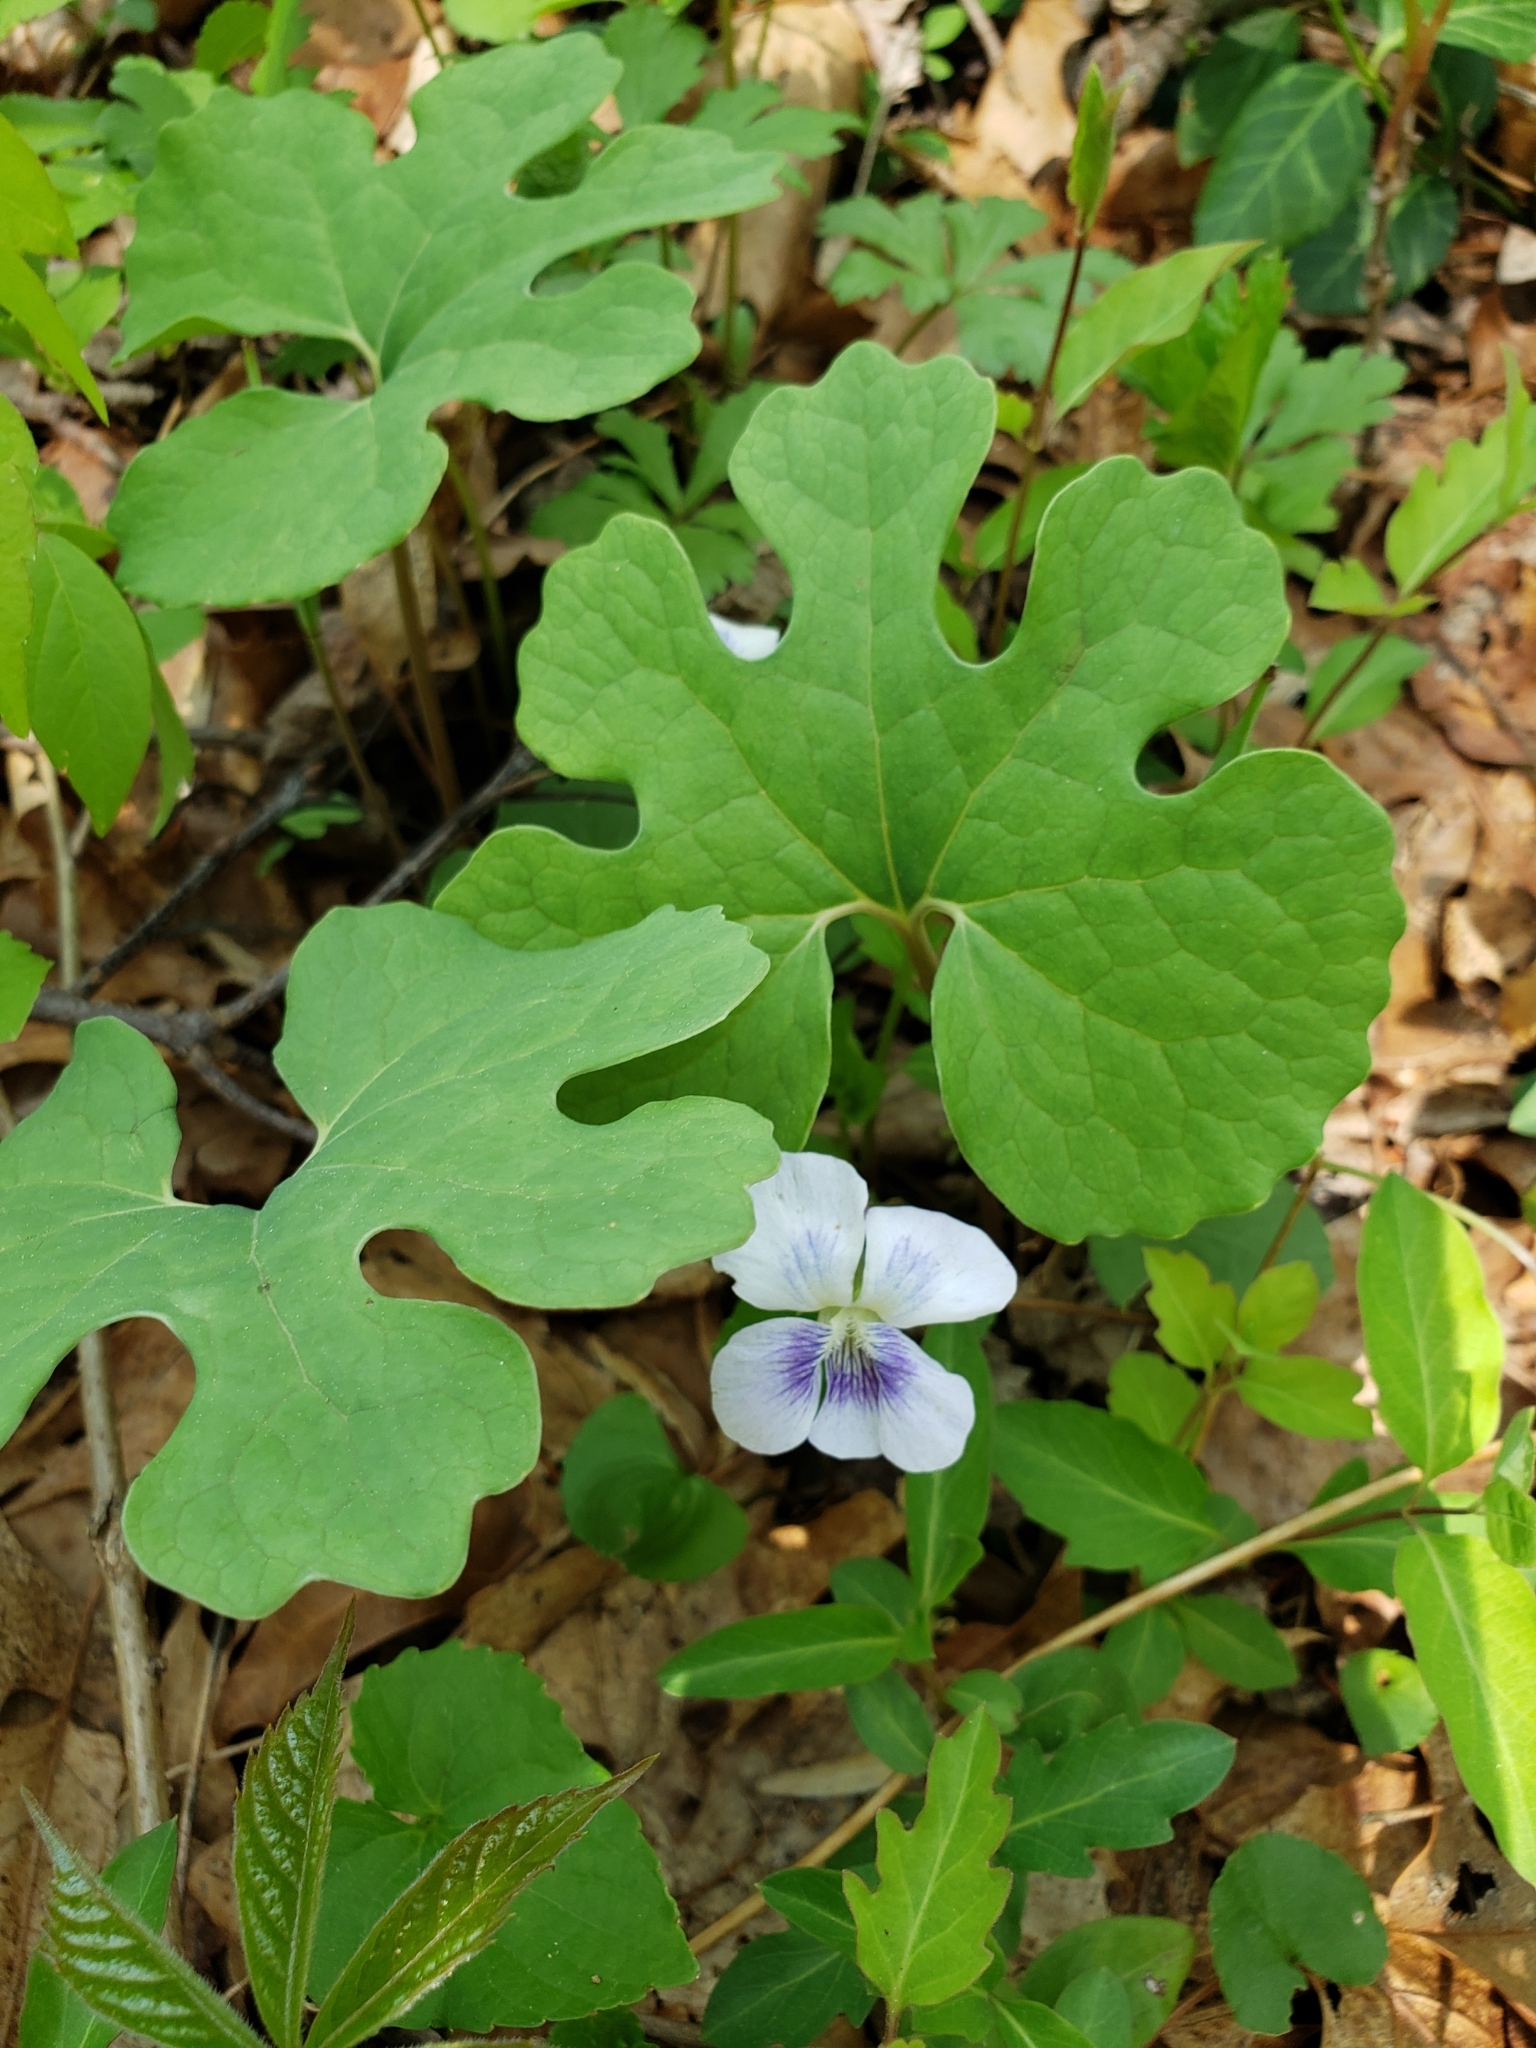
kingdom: Plantae
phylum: Tracheophyta
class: Magnoliopsida
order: Ranunculales
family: Papaveraceae
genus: Sanguinaria
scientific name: Sanguinaria canadensis
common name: Bloodroot
